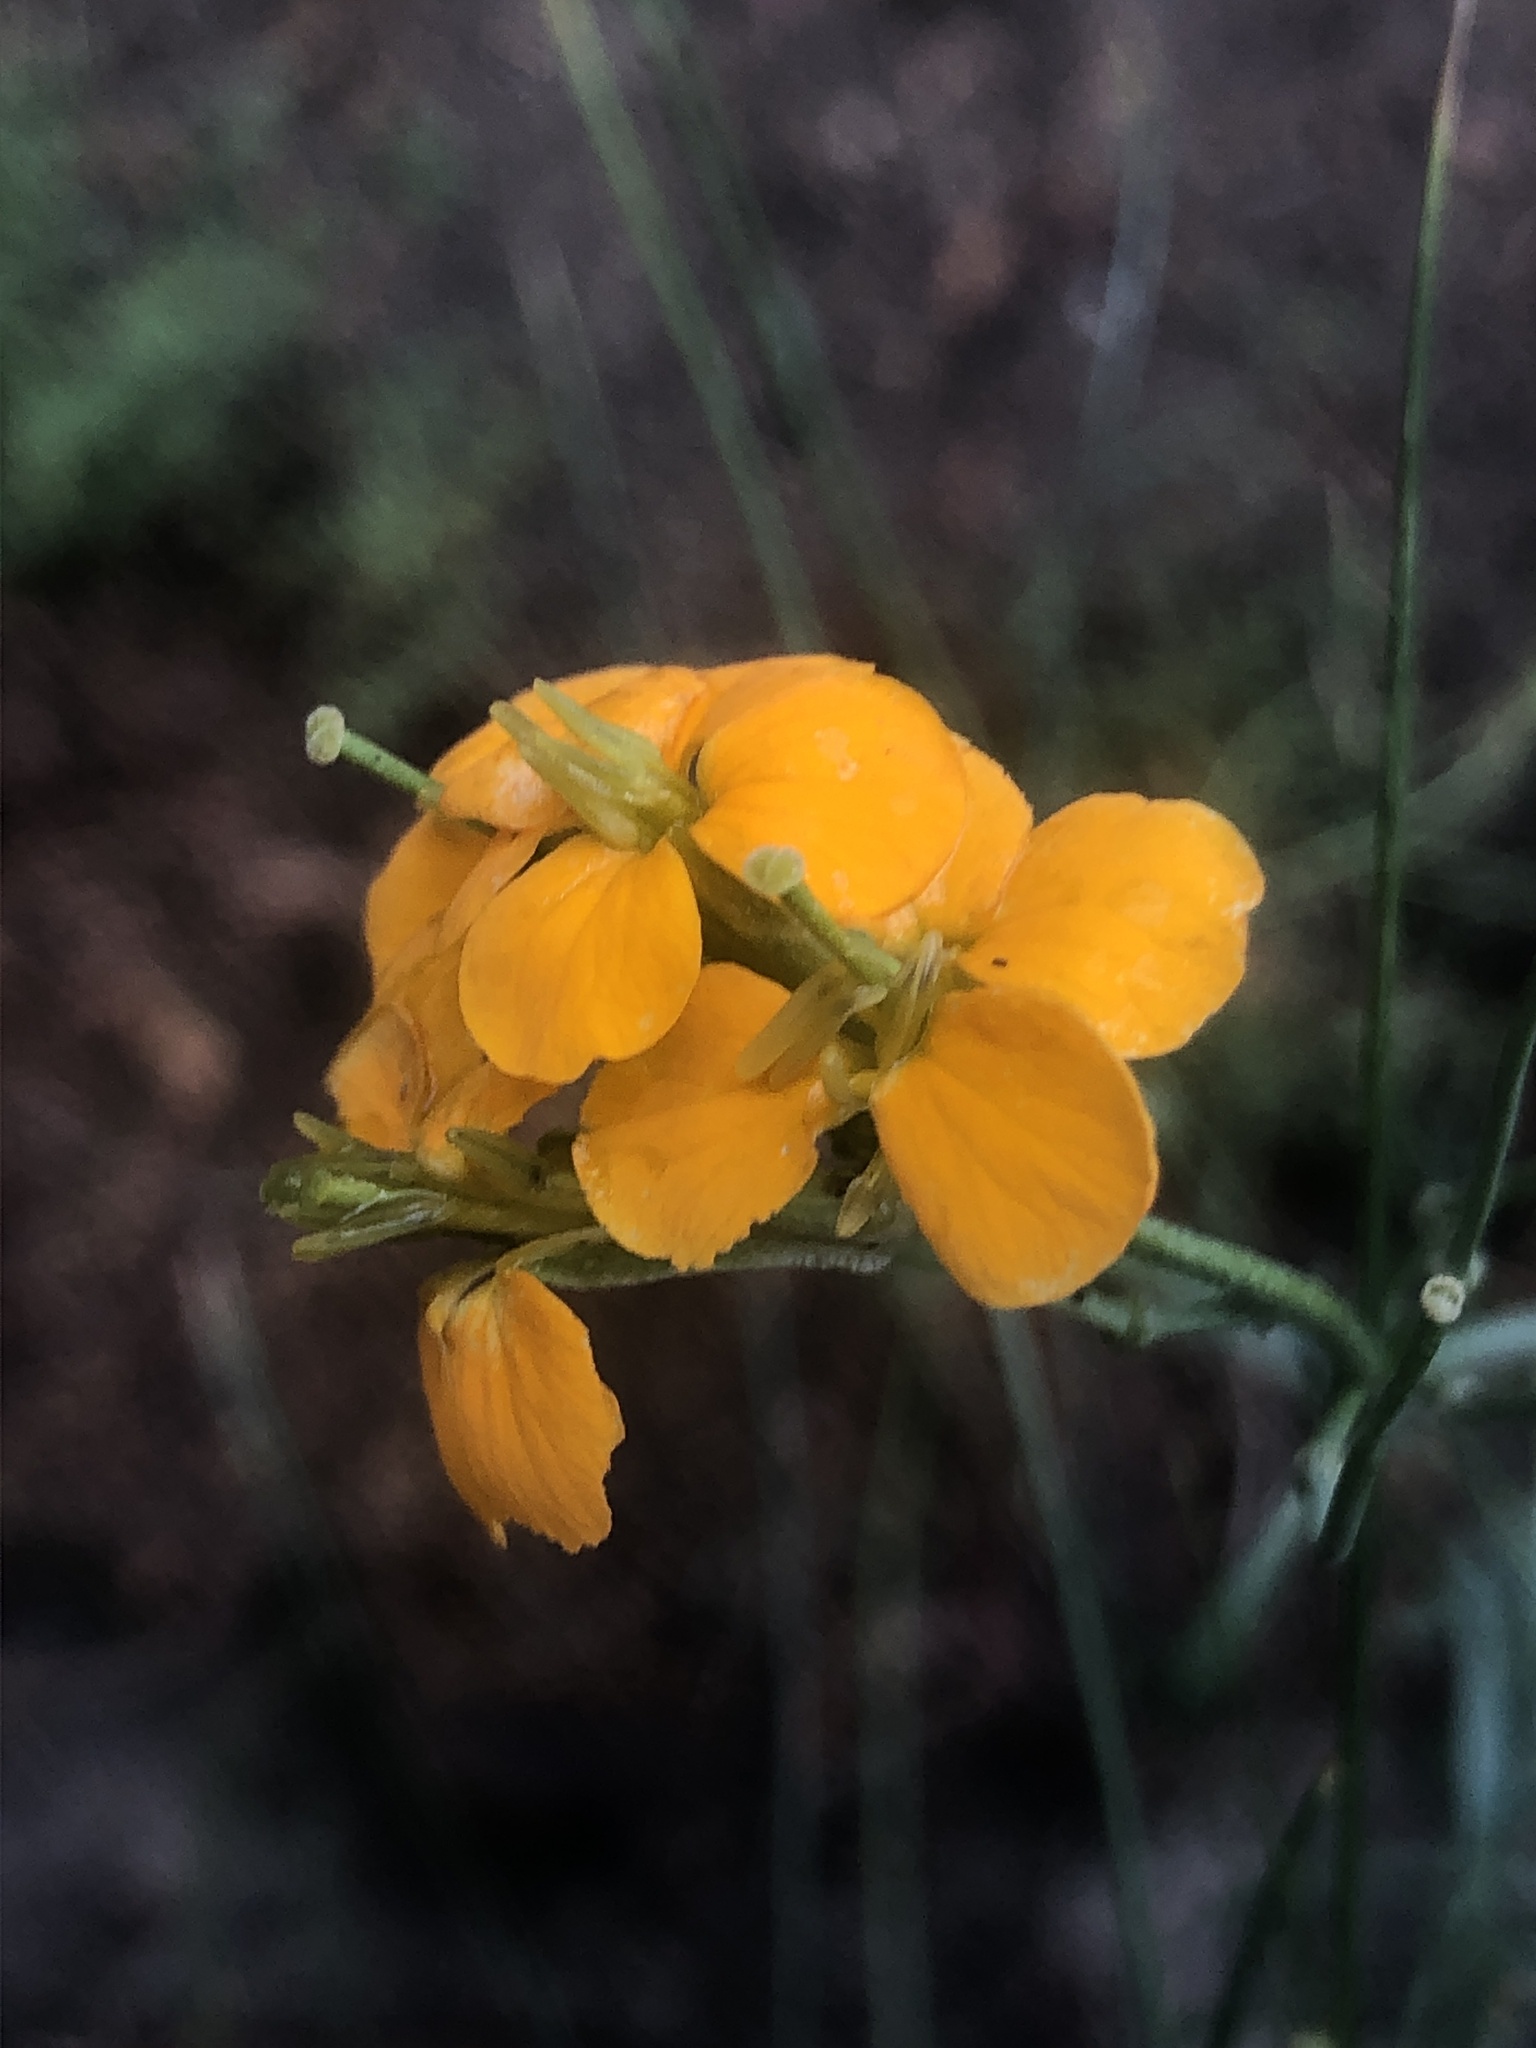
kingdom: Plantae
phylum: Tracheophyta
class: Magnoliopsida
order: Brassicales
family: Brassicaceae
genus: Erysimum
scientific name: Erysimum capitatum
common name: Western wallflower
